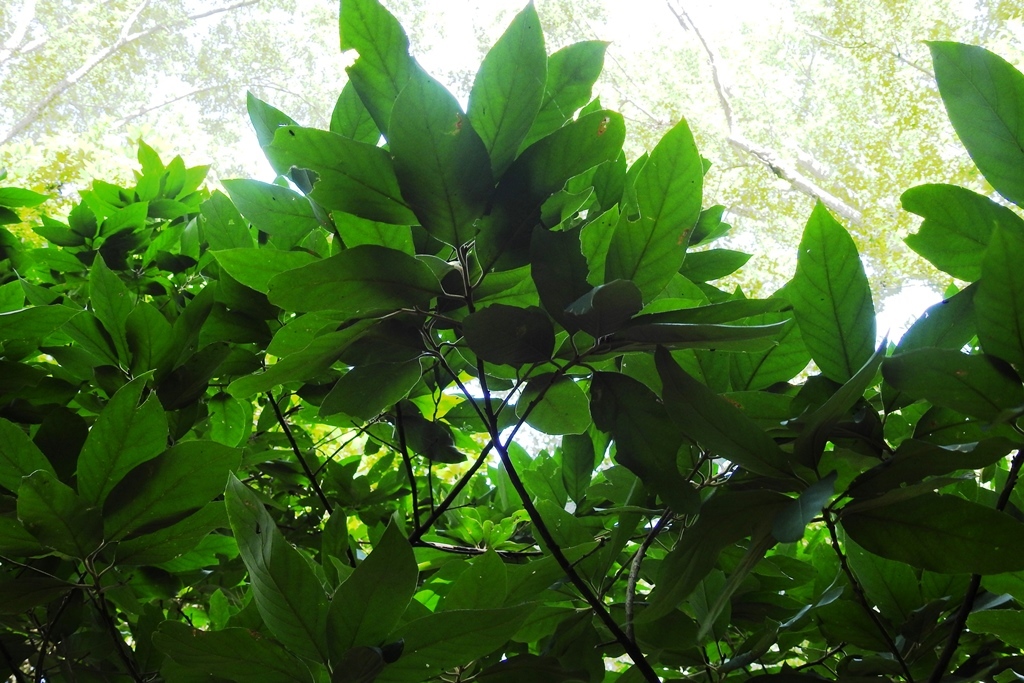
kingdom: Plantae
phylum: Tracheophyta
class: Magnoliopsida
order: Ericales
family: Styracaceae
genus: Styrax
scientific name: Styrax radians
